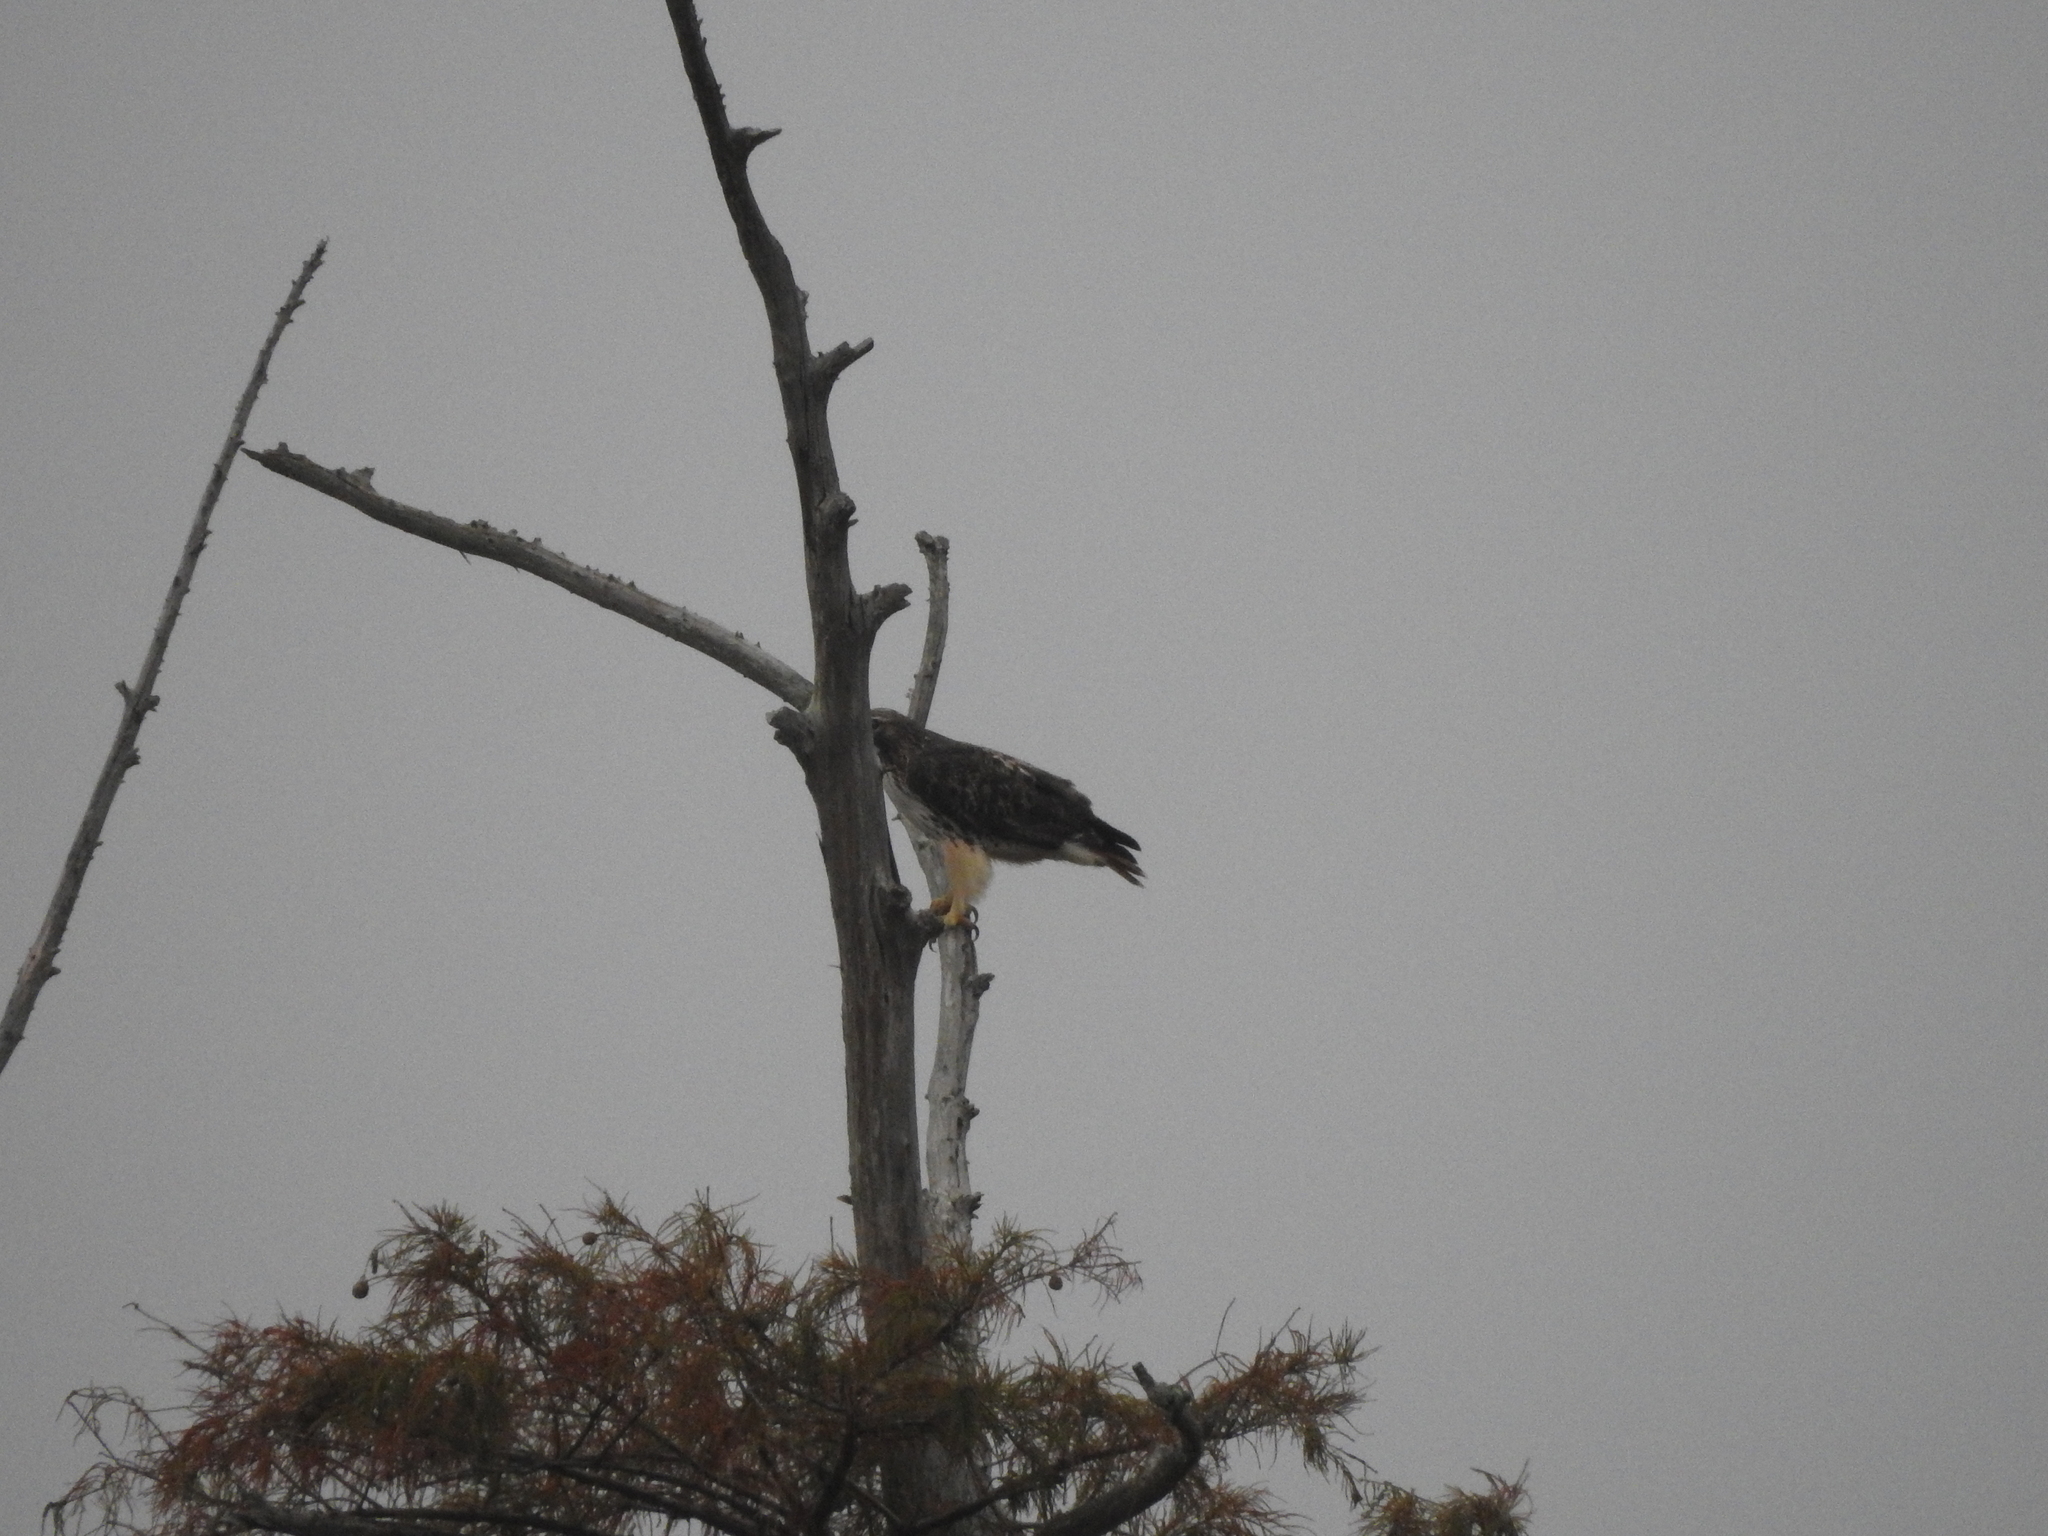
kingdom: Animalia
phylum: Chordata
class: Aves
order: Accipitriformes
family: Accipitridae
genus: Buteo
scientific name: Buteo jamaicensis
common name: Red-tailed hawk
